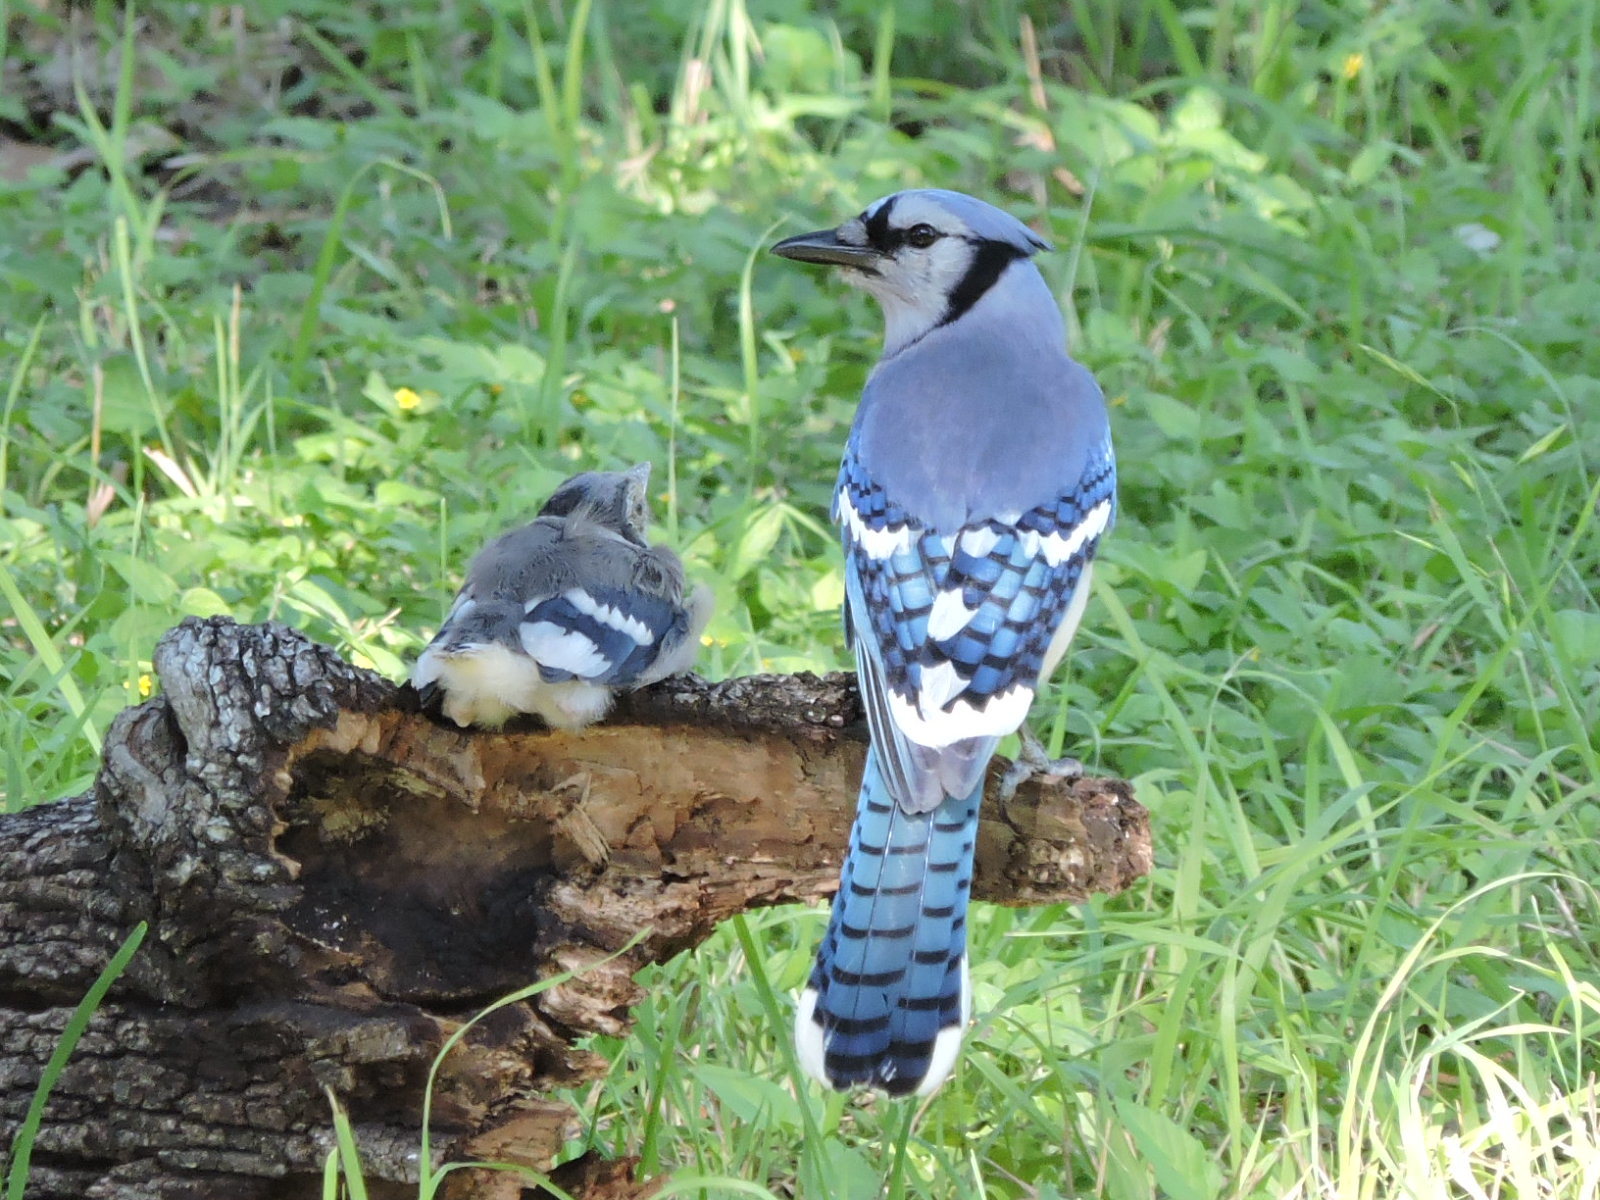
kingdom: Animalia
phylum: Chordata
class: Aves
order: Passeriformes
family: Corvidae
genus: Cyanocitta
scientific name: Cyanocitta cristata
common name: Blue jay
